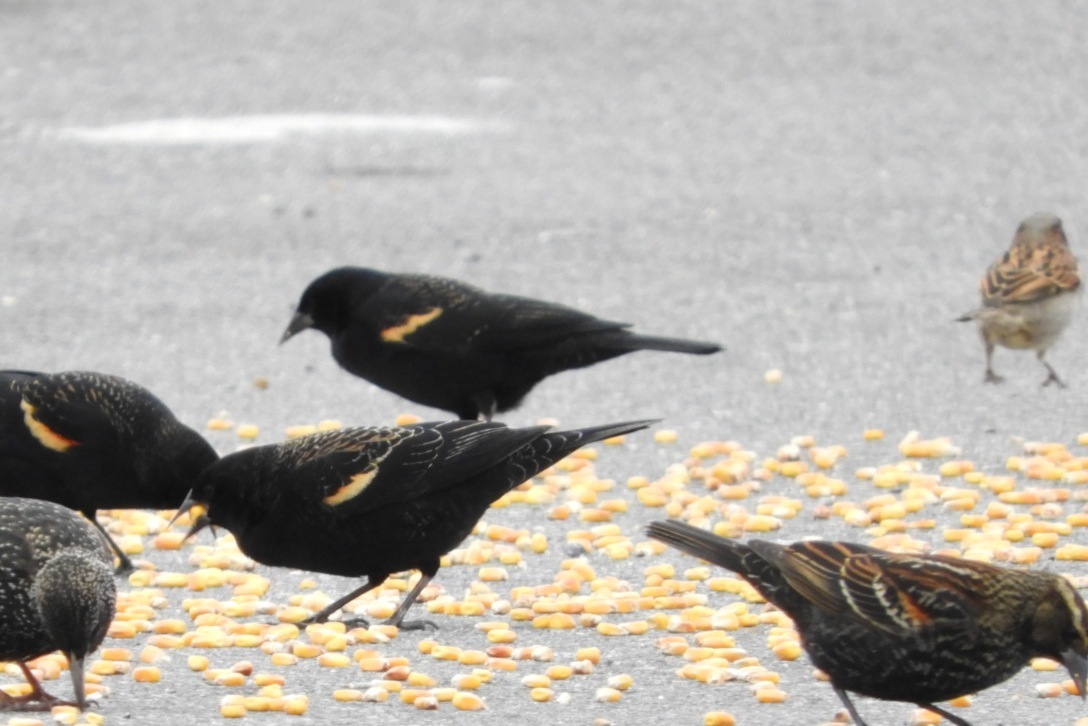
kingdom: Animalia
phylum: Chordata
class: Aves
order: Passeriformes
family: Icteridae
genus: Agelaius
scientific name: Agelaius phoeniceus
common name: Red-winged blackbird
